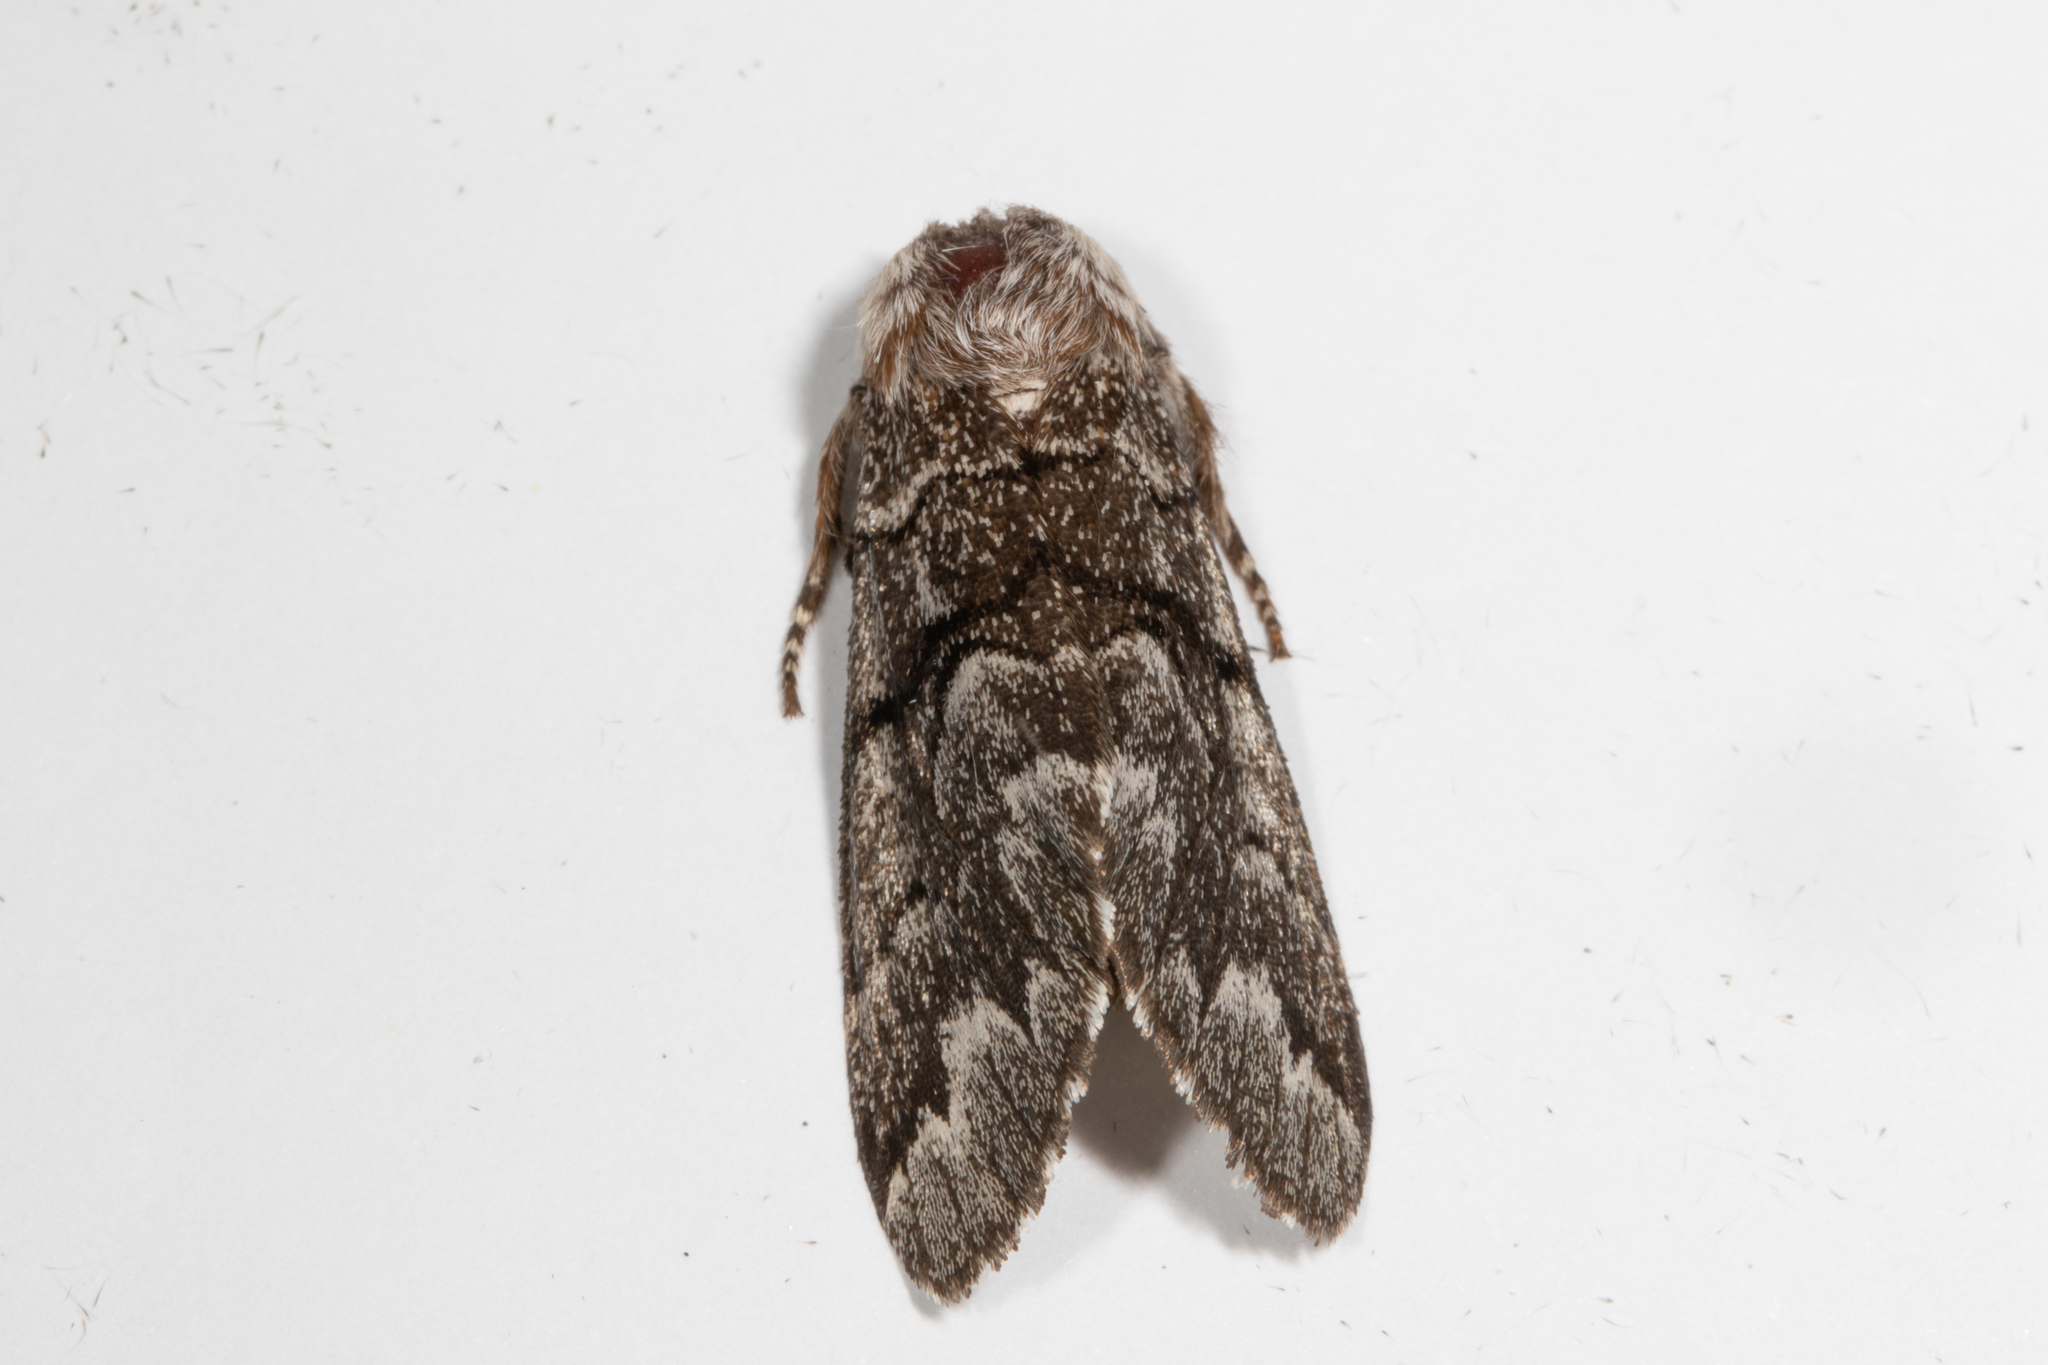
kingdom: Animalia
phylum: Arthropoda
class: Insecta
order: Lepidoptera
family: Noctuidae
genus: Panthea
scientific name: Panthea furcilla
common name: Eastern panthea moth
